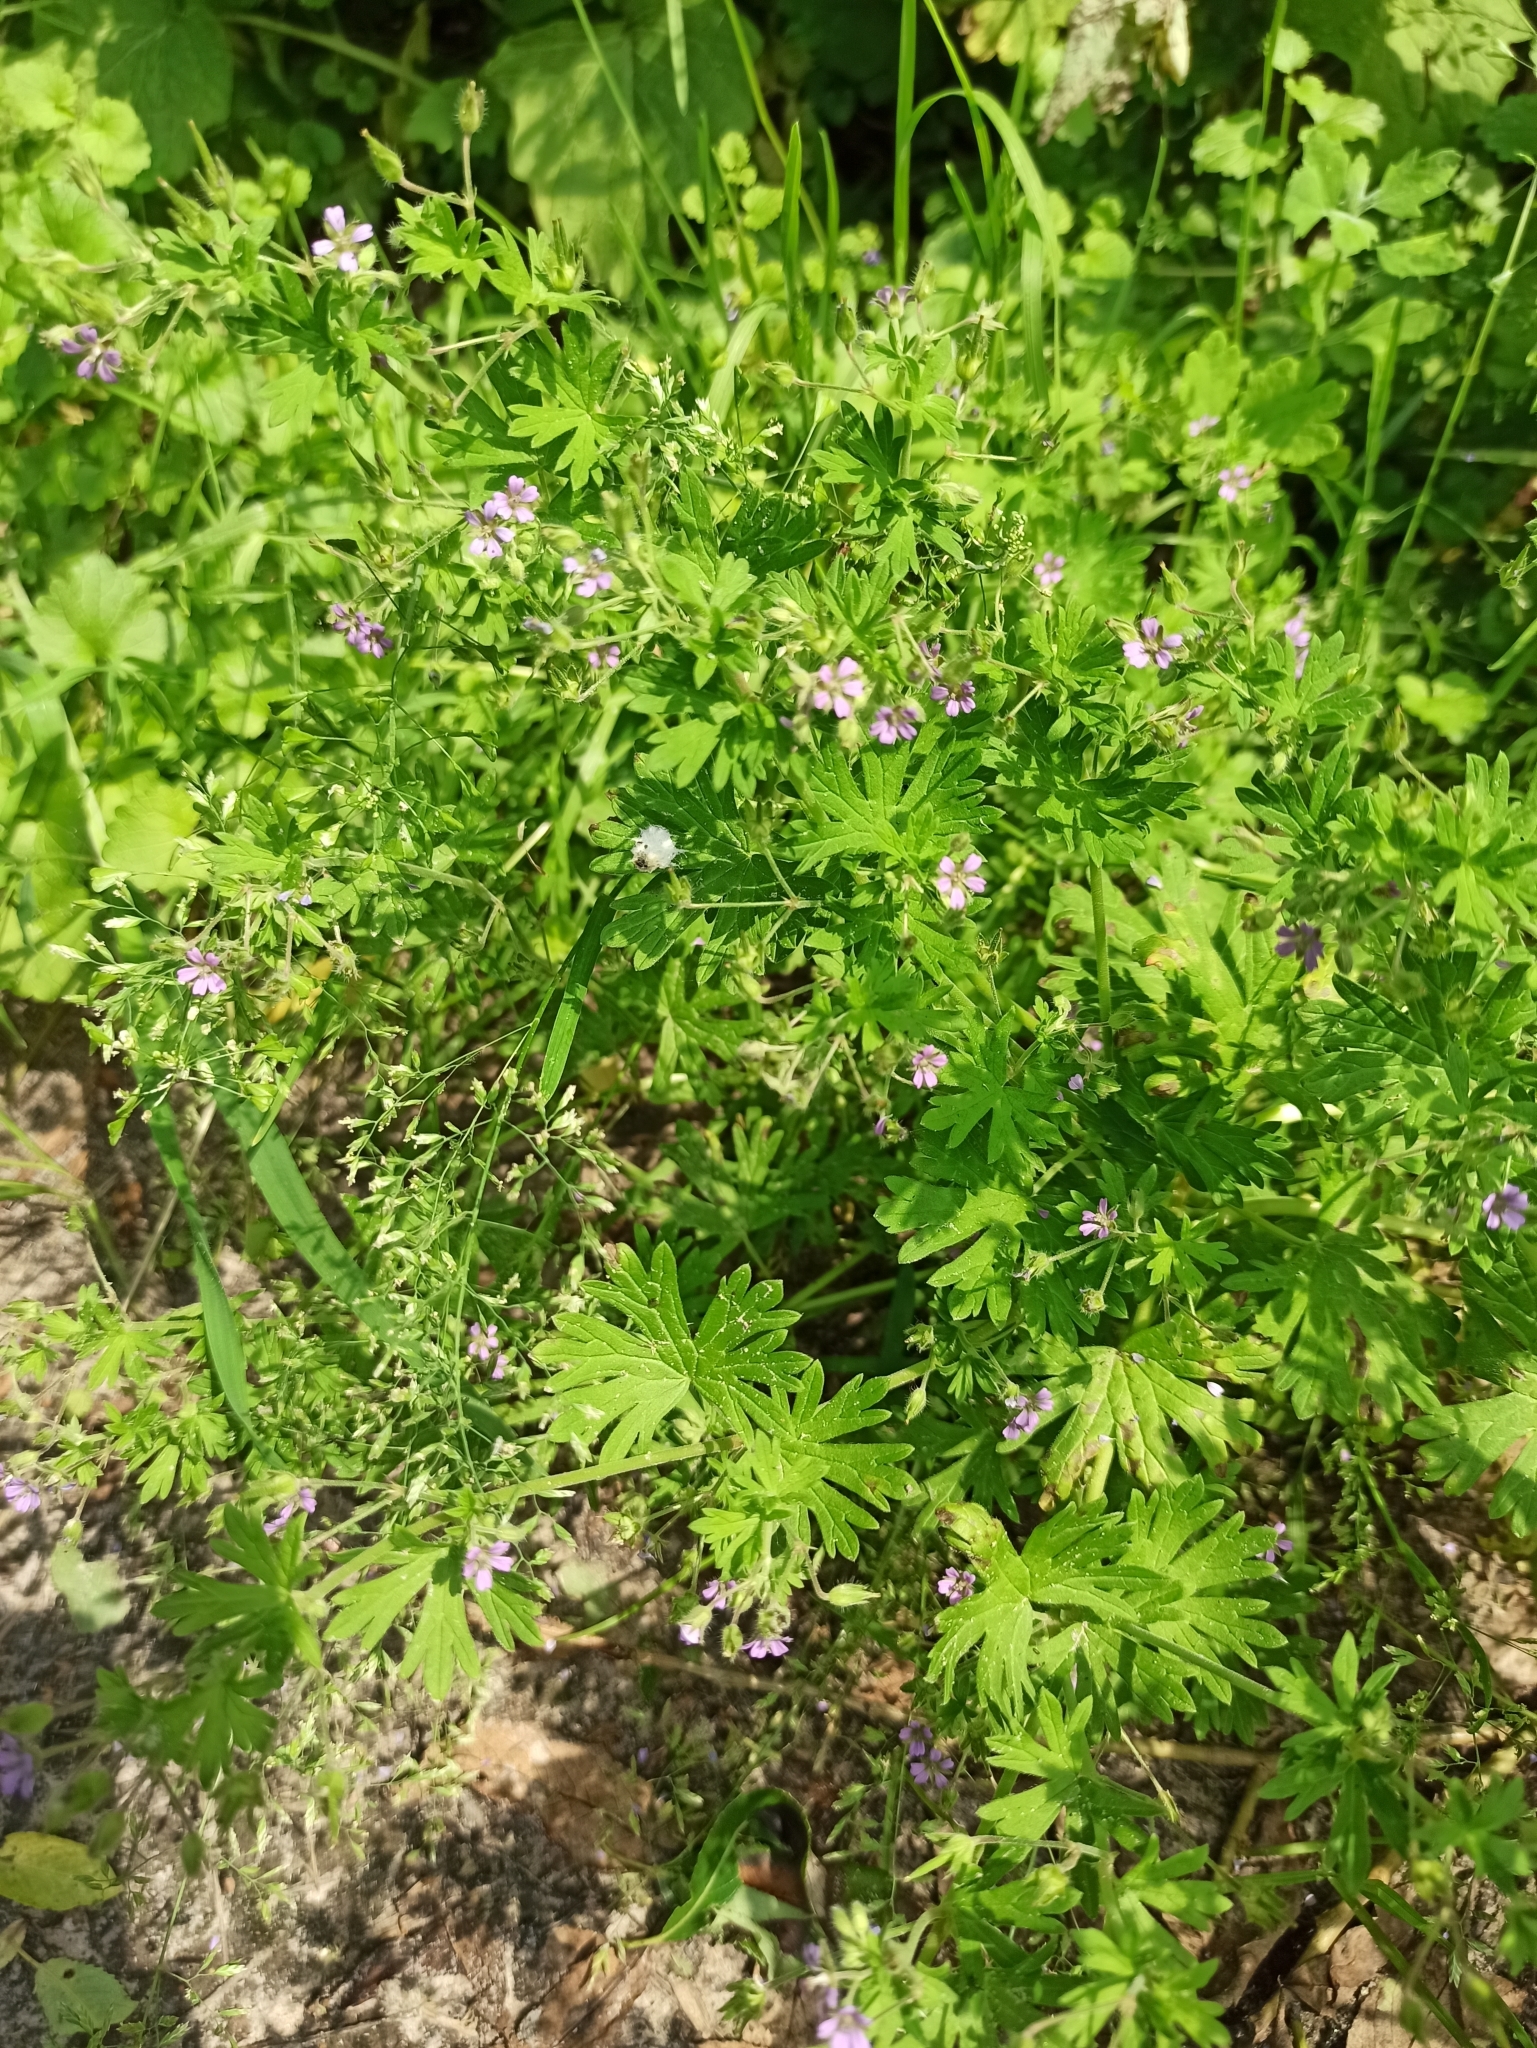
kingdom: Plantae
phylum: Tracheophyta
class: Magnoliopsida
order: Geraniales
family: Geraniaceae
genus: Geranium
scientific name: Geranium pusillum
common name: Small geranium
